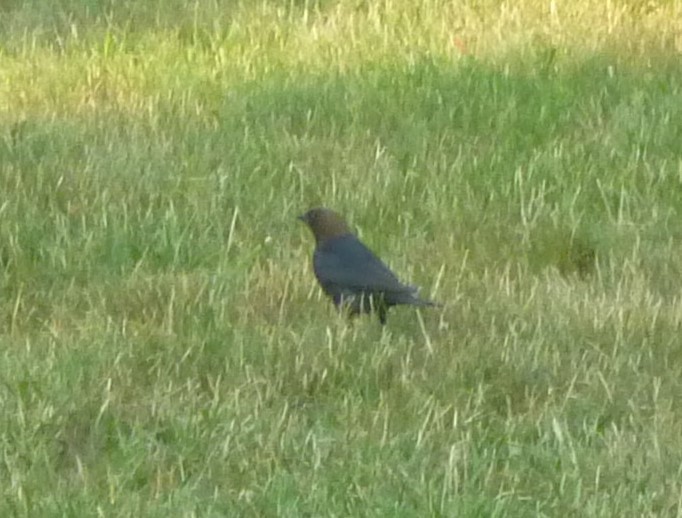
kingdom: Animalia
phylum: Chordata
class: Aves
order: Passeriformes
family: Icteridae
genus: Molothrus
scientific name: Molothrus ater
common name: Brown-headed cowbird
